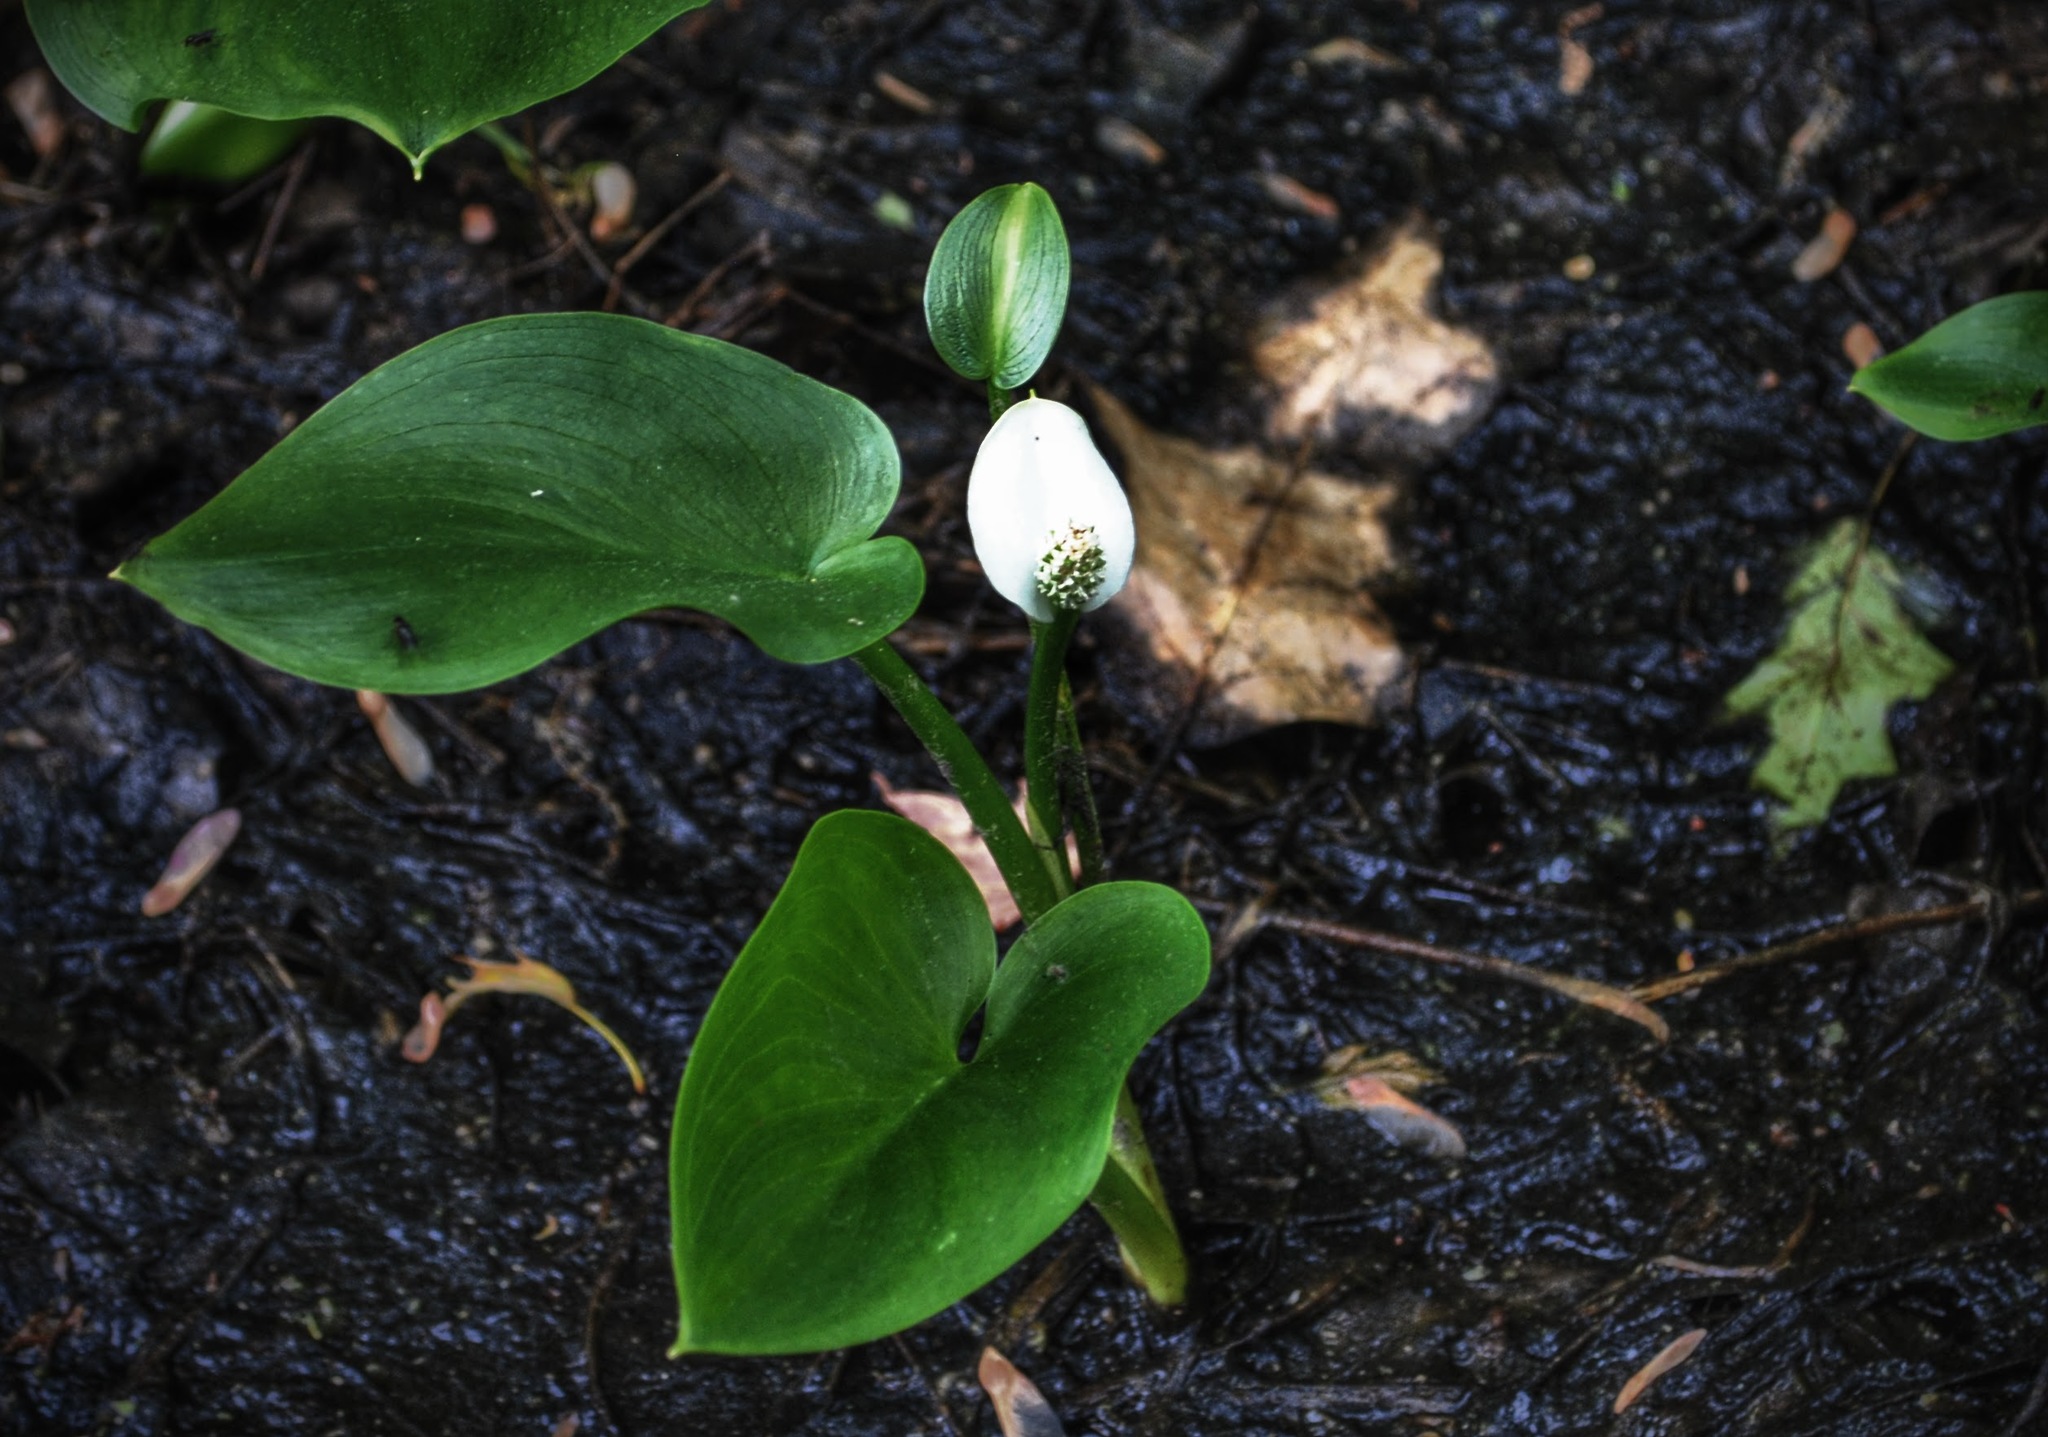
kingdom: Plantae
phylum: Tracheophyta
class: Liliopsida
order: Alismatales
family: Araceae
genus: Calla
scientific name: Calla palustris
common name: Bog arum
